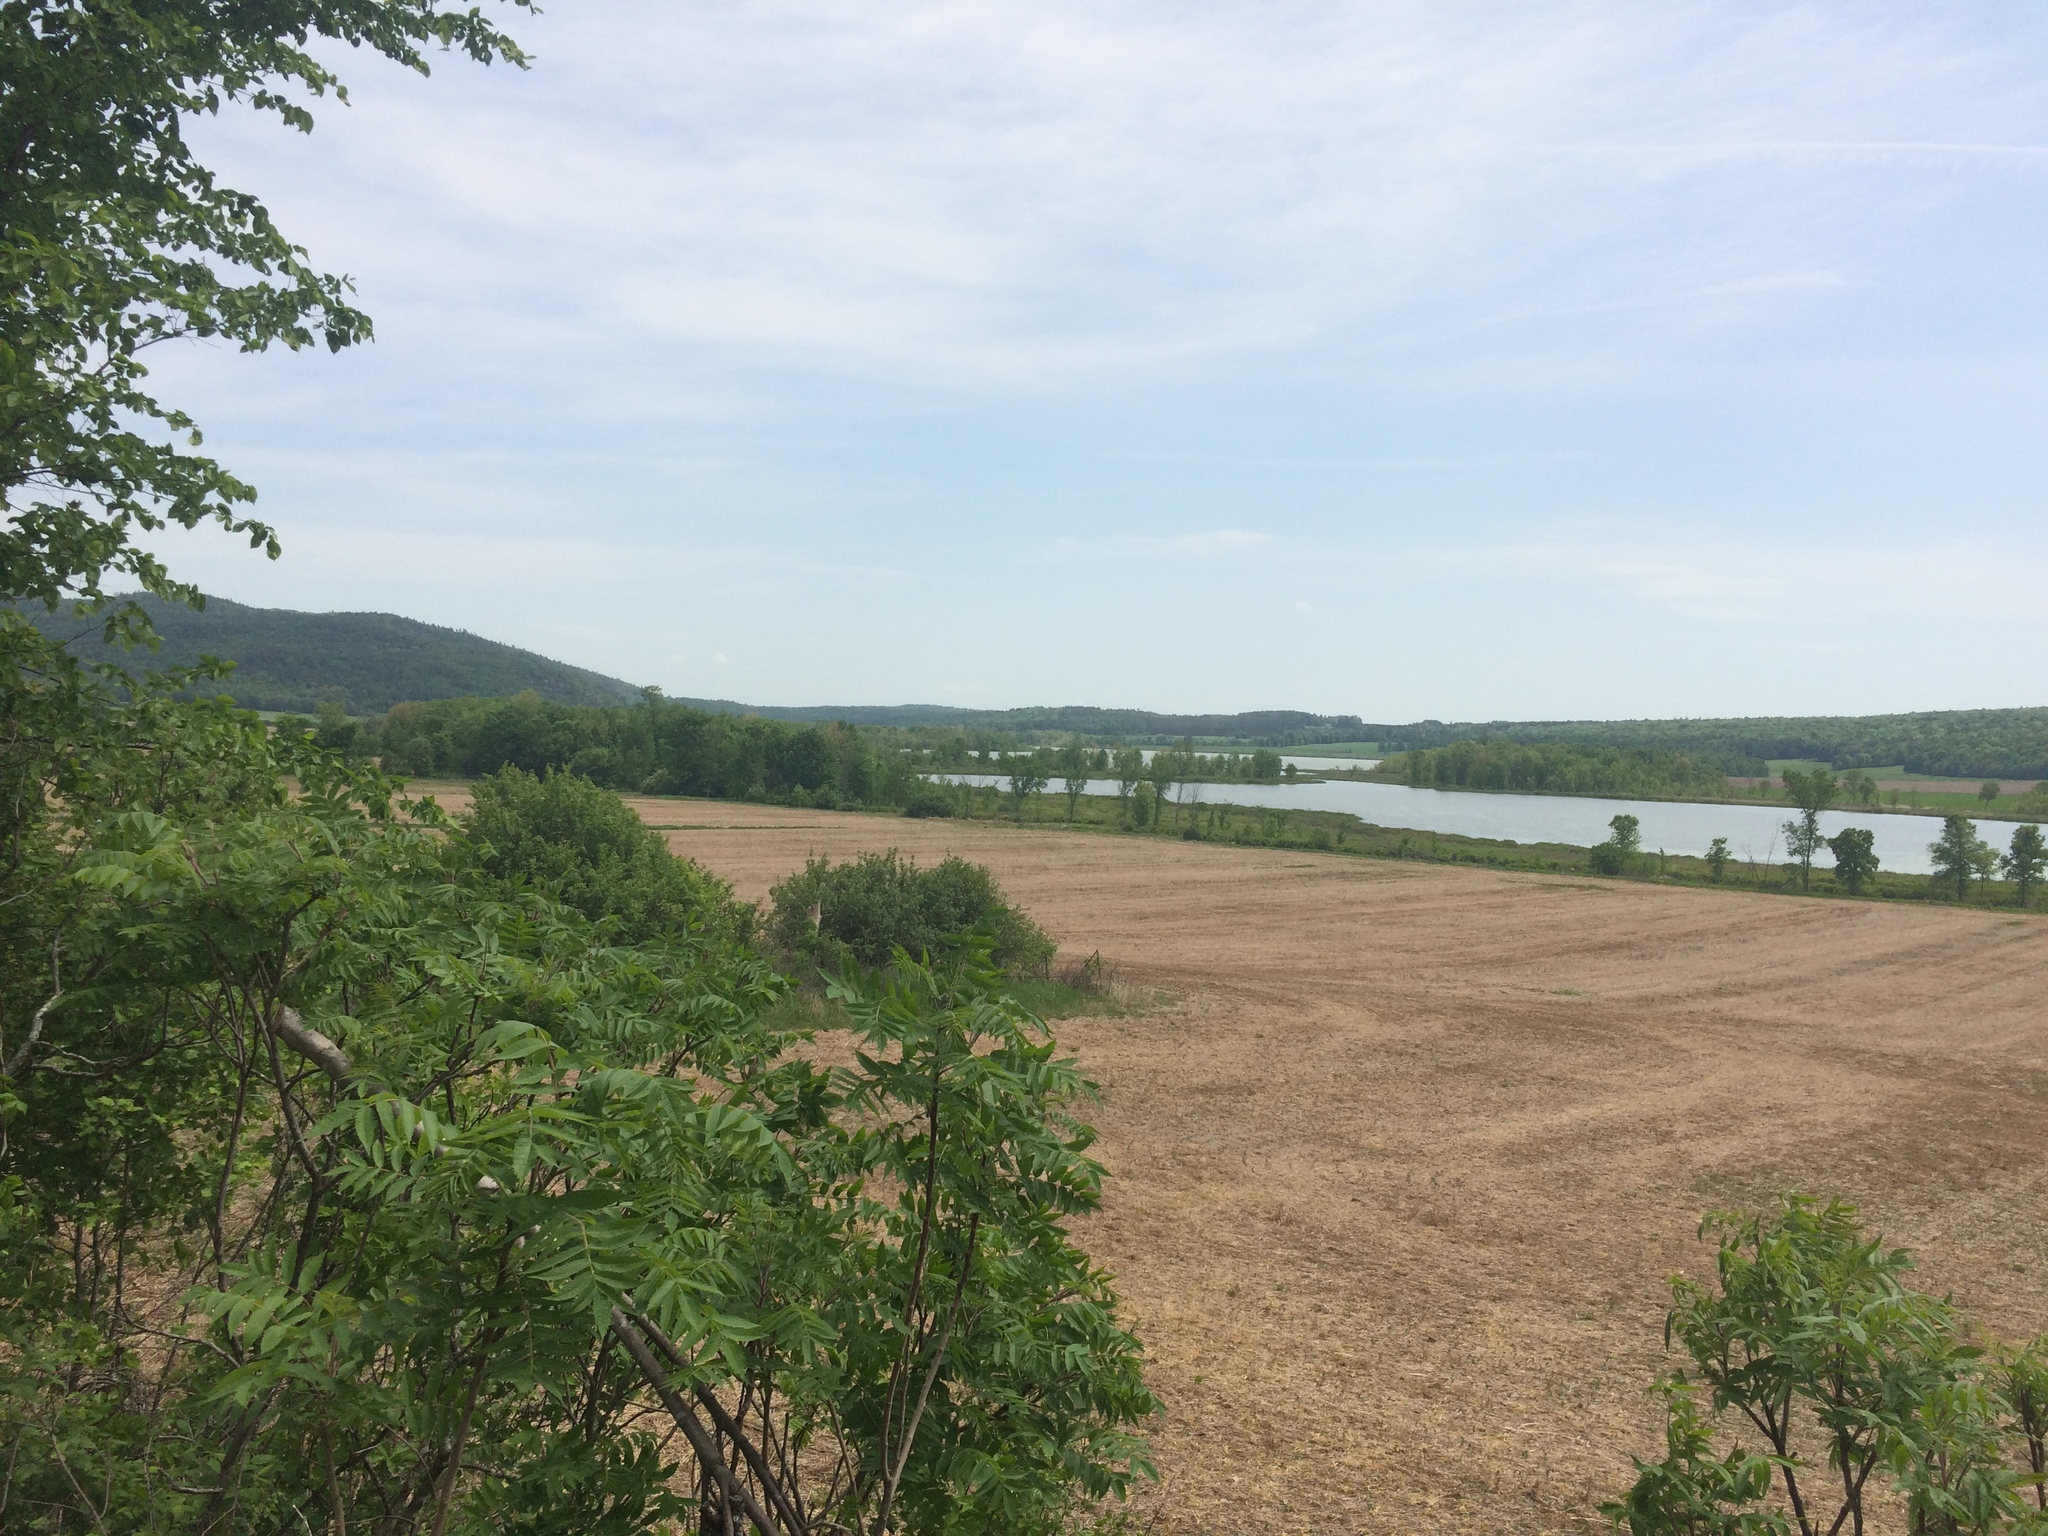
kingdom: Plantae
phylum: Tracheophyta
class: Magnoliopsida
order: Rosales
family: Rosaceae
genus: Crataegus
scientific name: Crataegus submollis
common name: Hairy cockspurthorn
